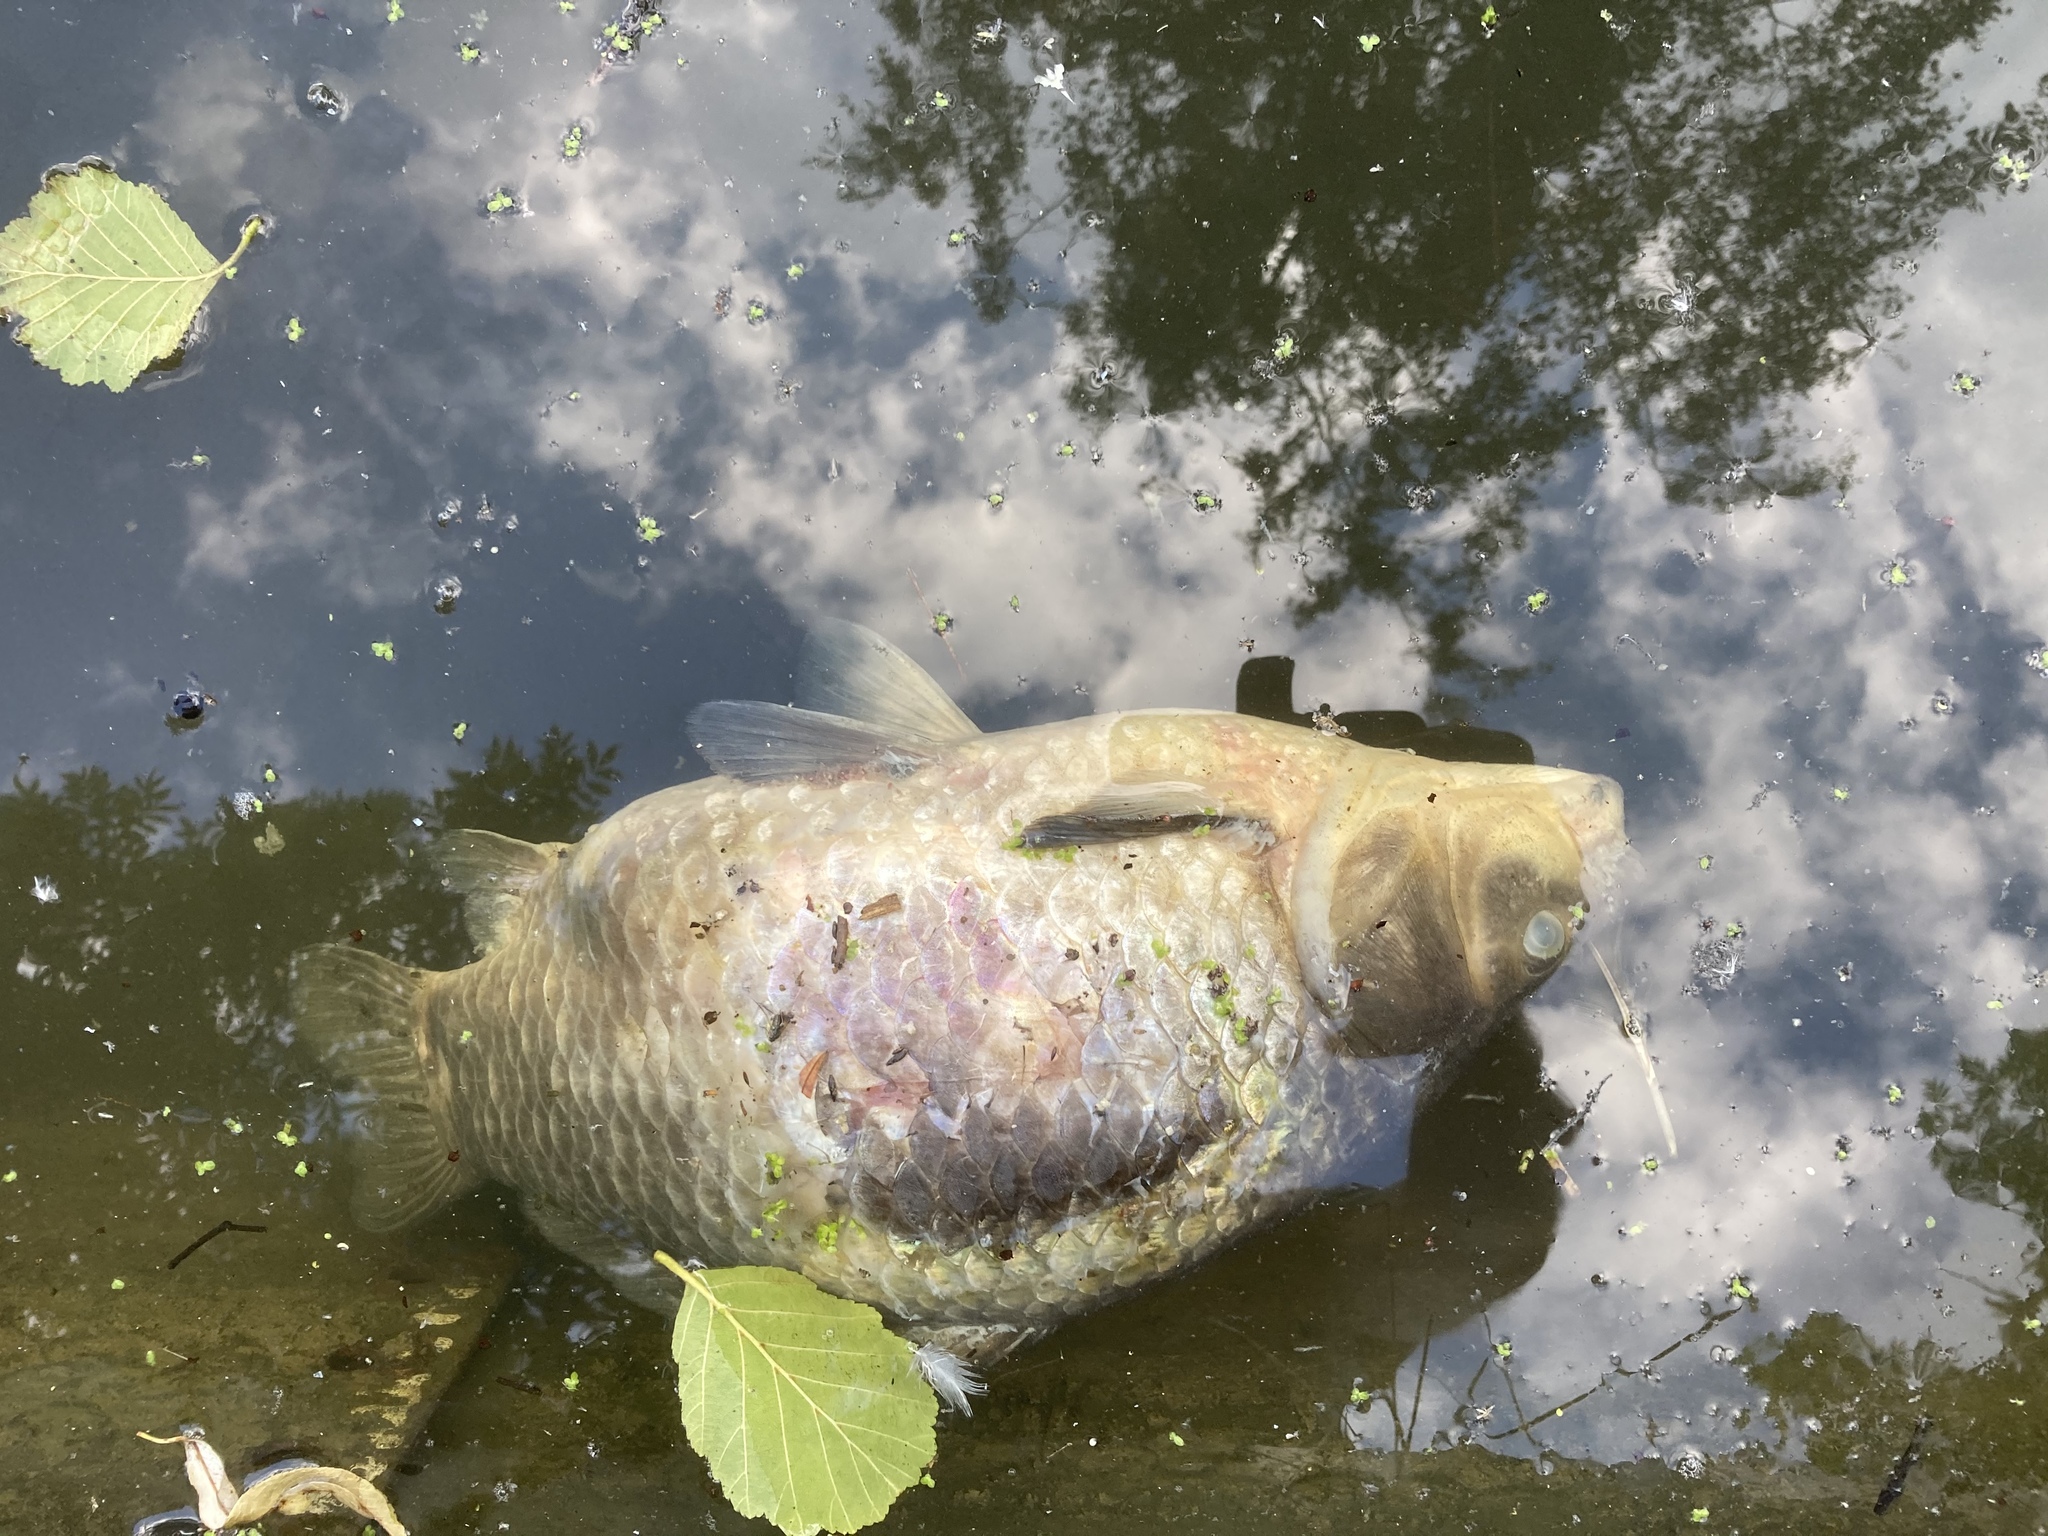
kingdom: Animalia
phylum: Chordata
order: Cypriniformes
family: Cyprinidae
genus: Cyprinus
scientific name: Cyprinus carpio
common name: Common carp
